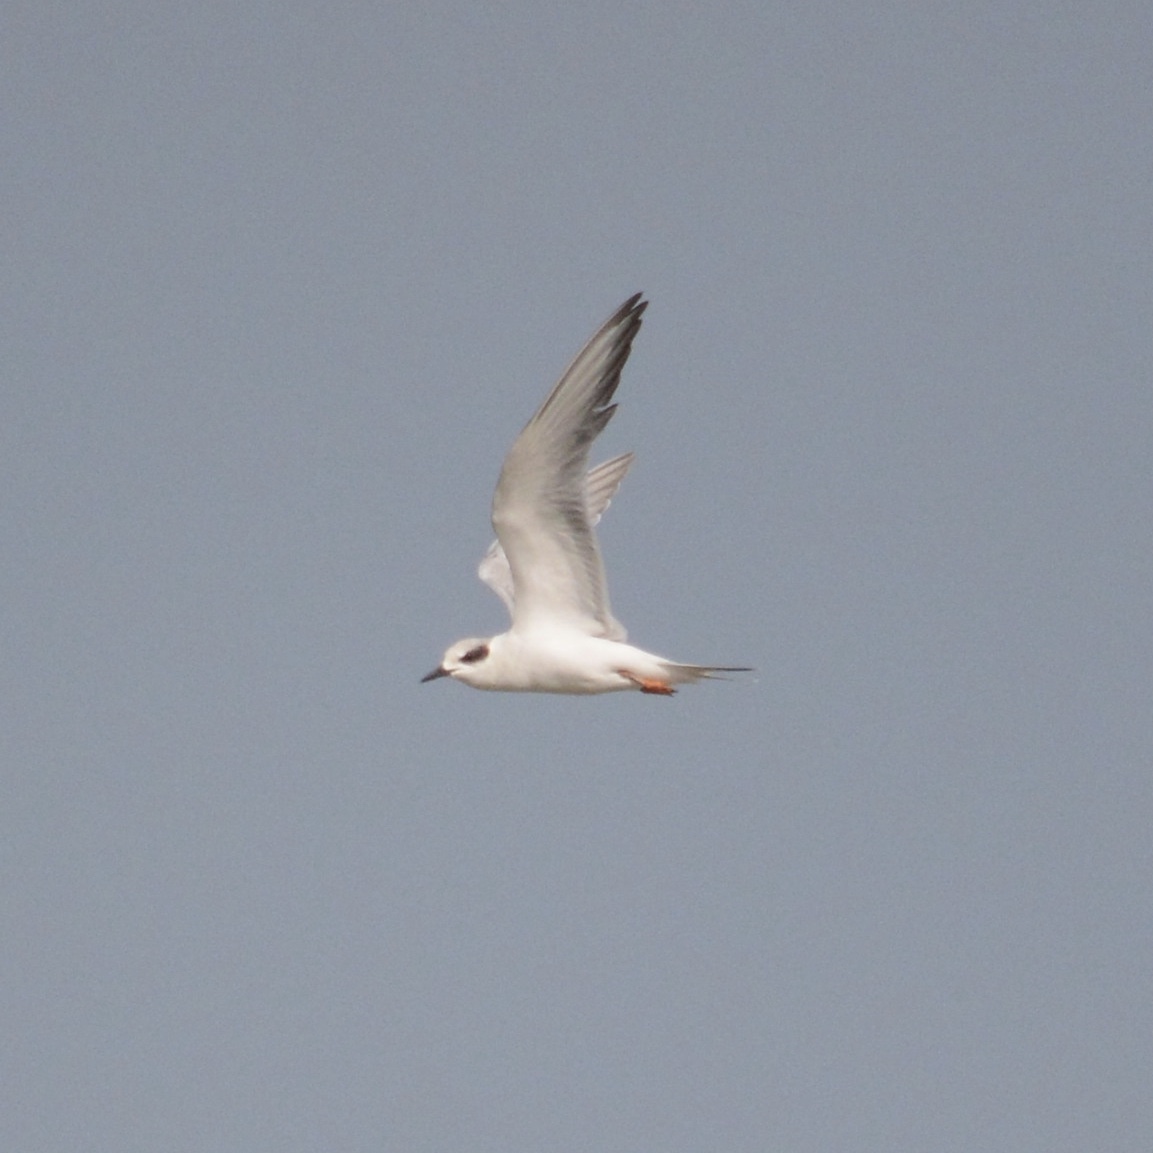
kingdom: Animalia
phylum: Chordata
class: Aves
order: Charadriiformes
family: Laridae
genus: Sterna
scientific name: Sterna forsteri
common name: Forster's tern
